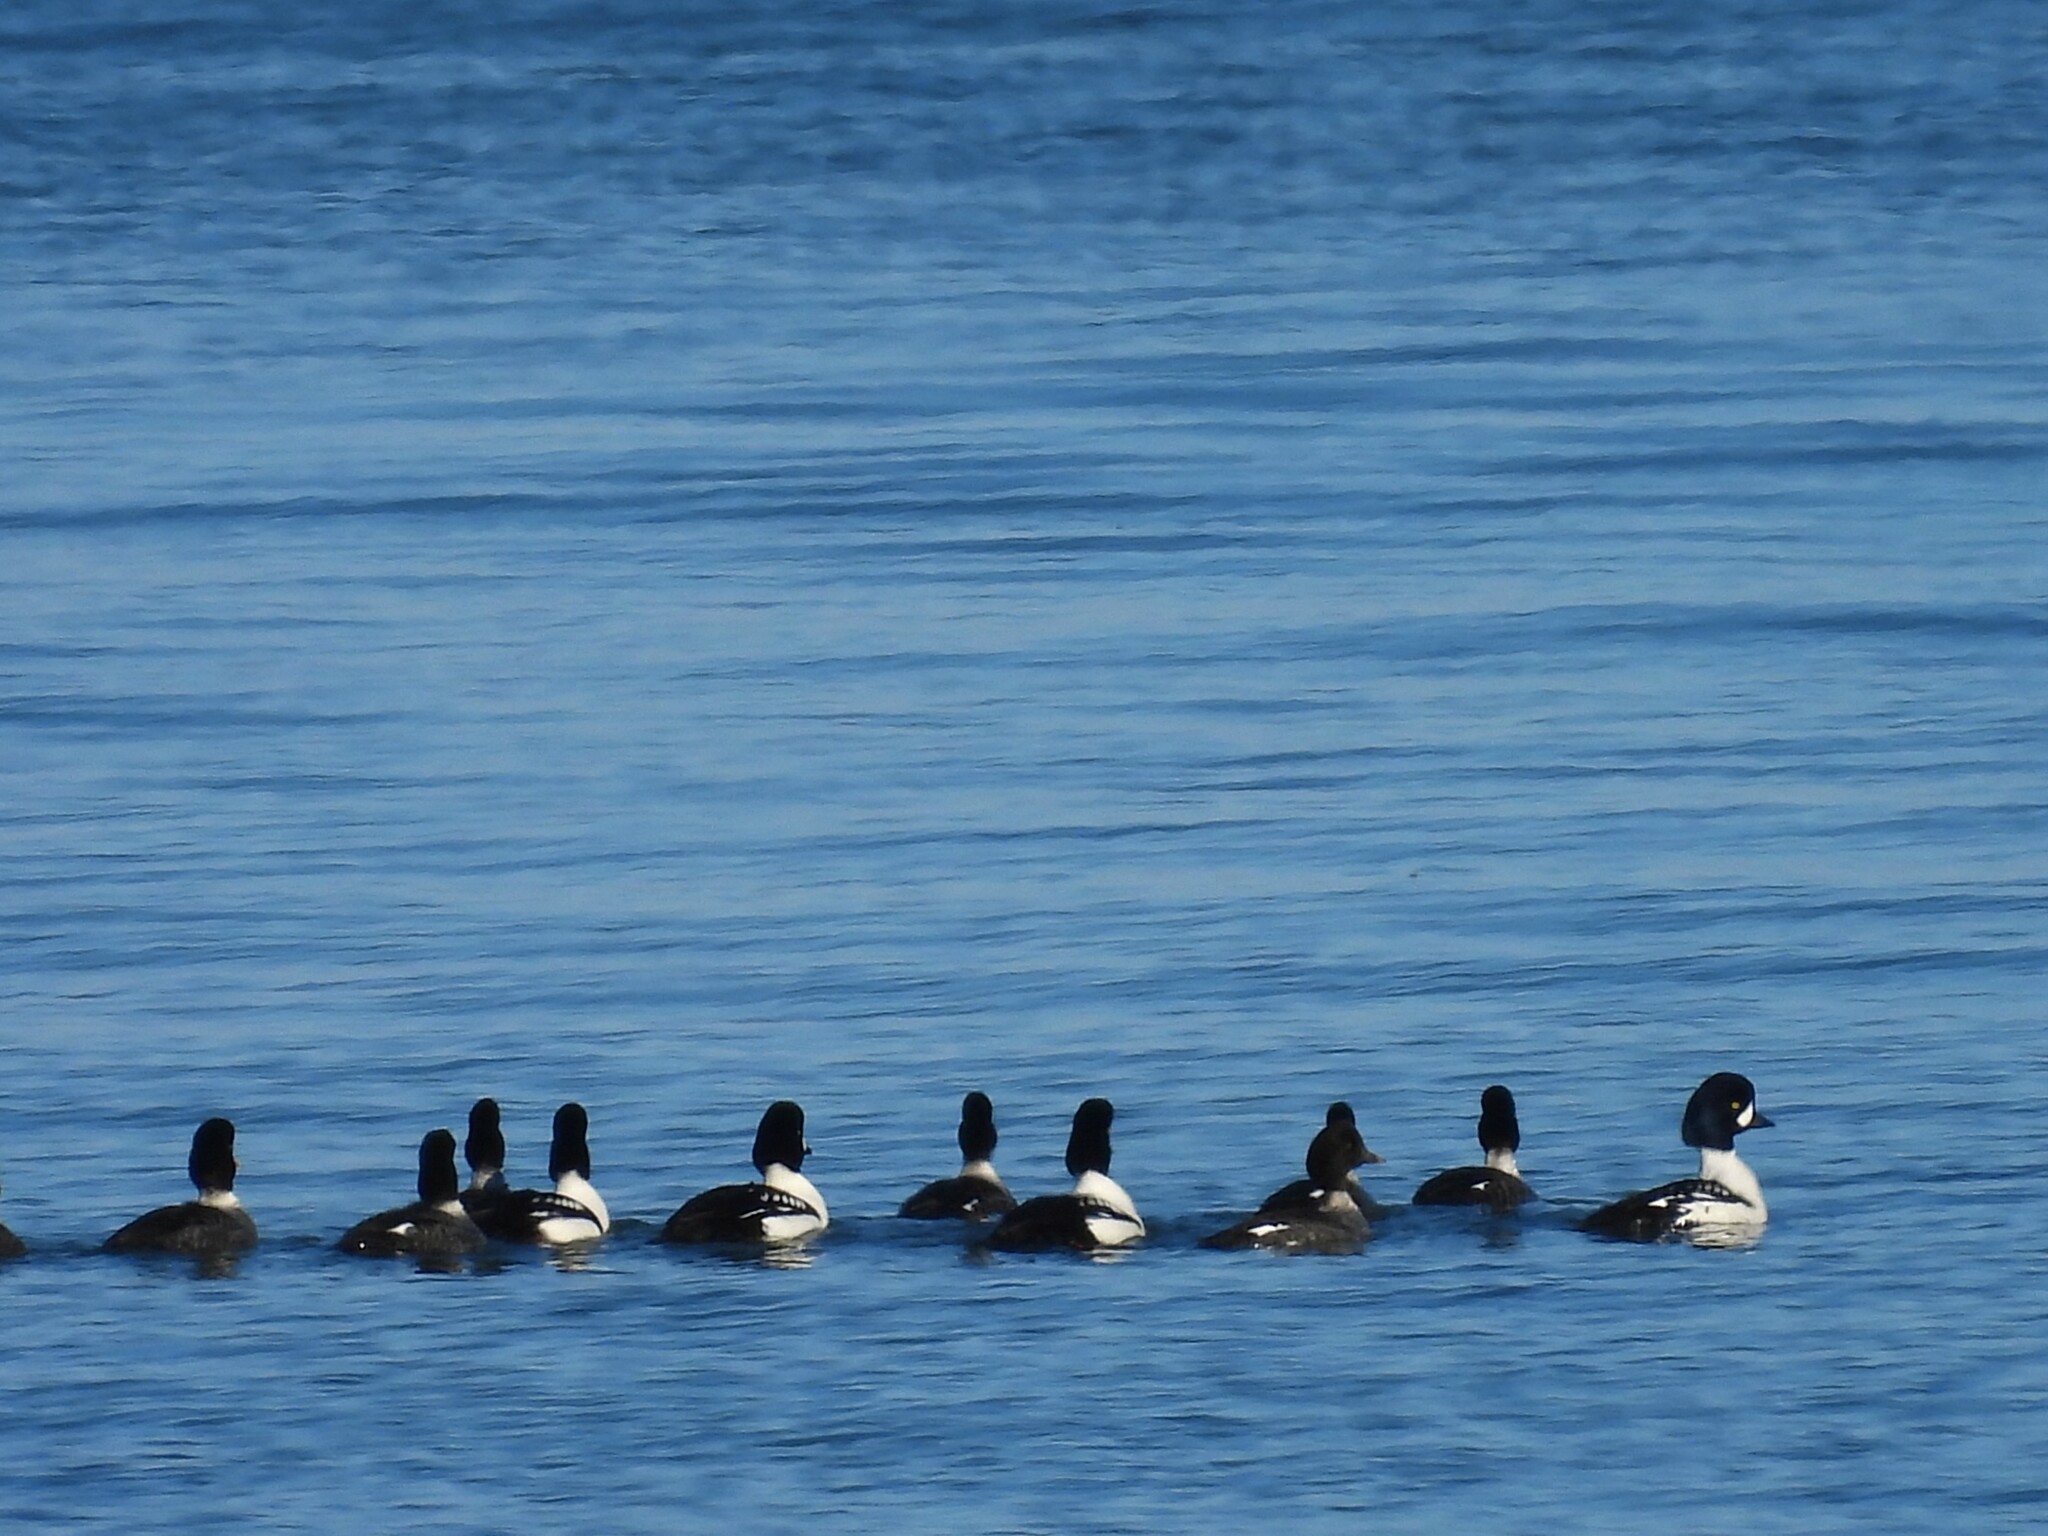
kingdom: Animalia
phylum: Chordata
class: Aves
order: Anseriformes
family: Anatidae
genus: Bucephala
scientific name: Bucephala islandica
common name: Barrow's goldeneye
